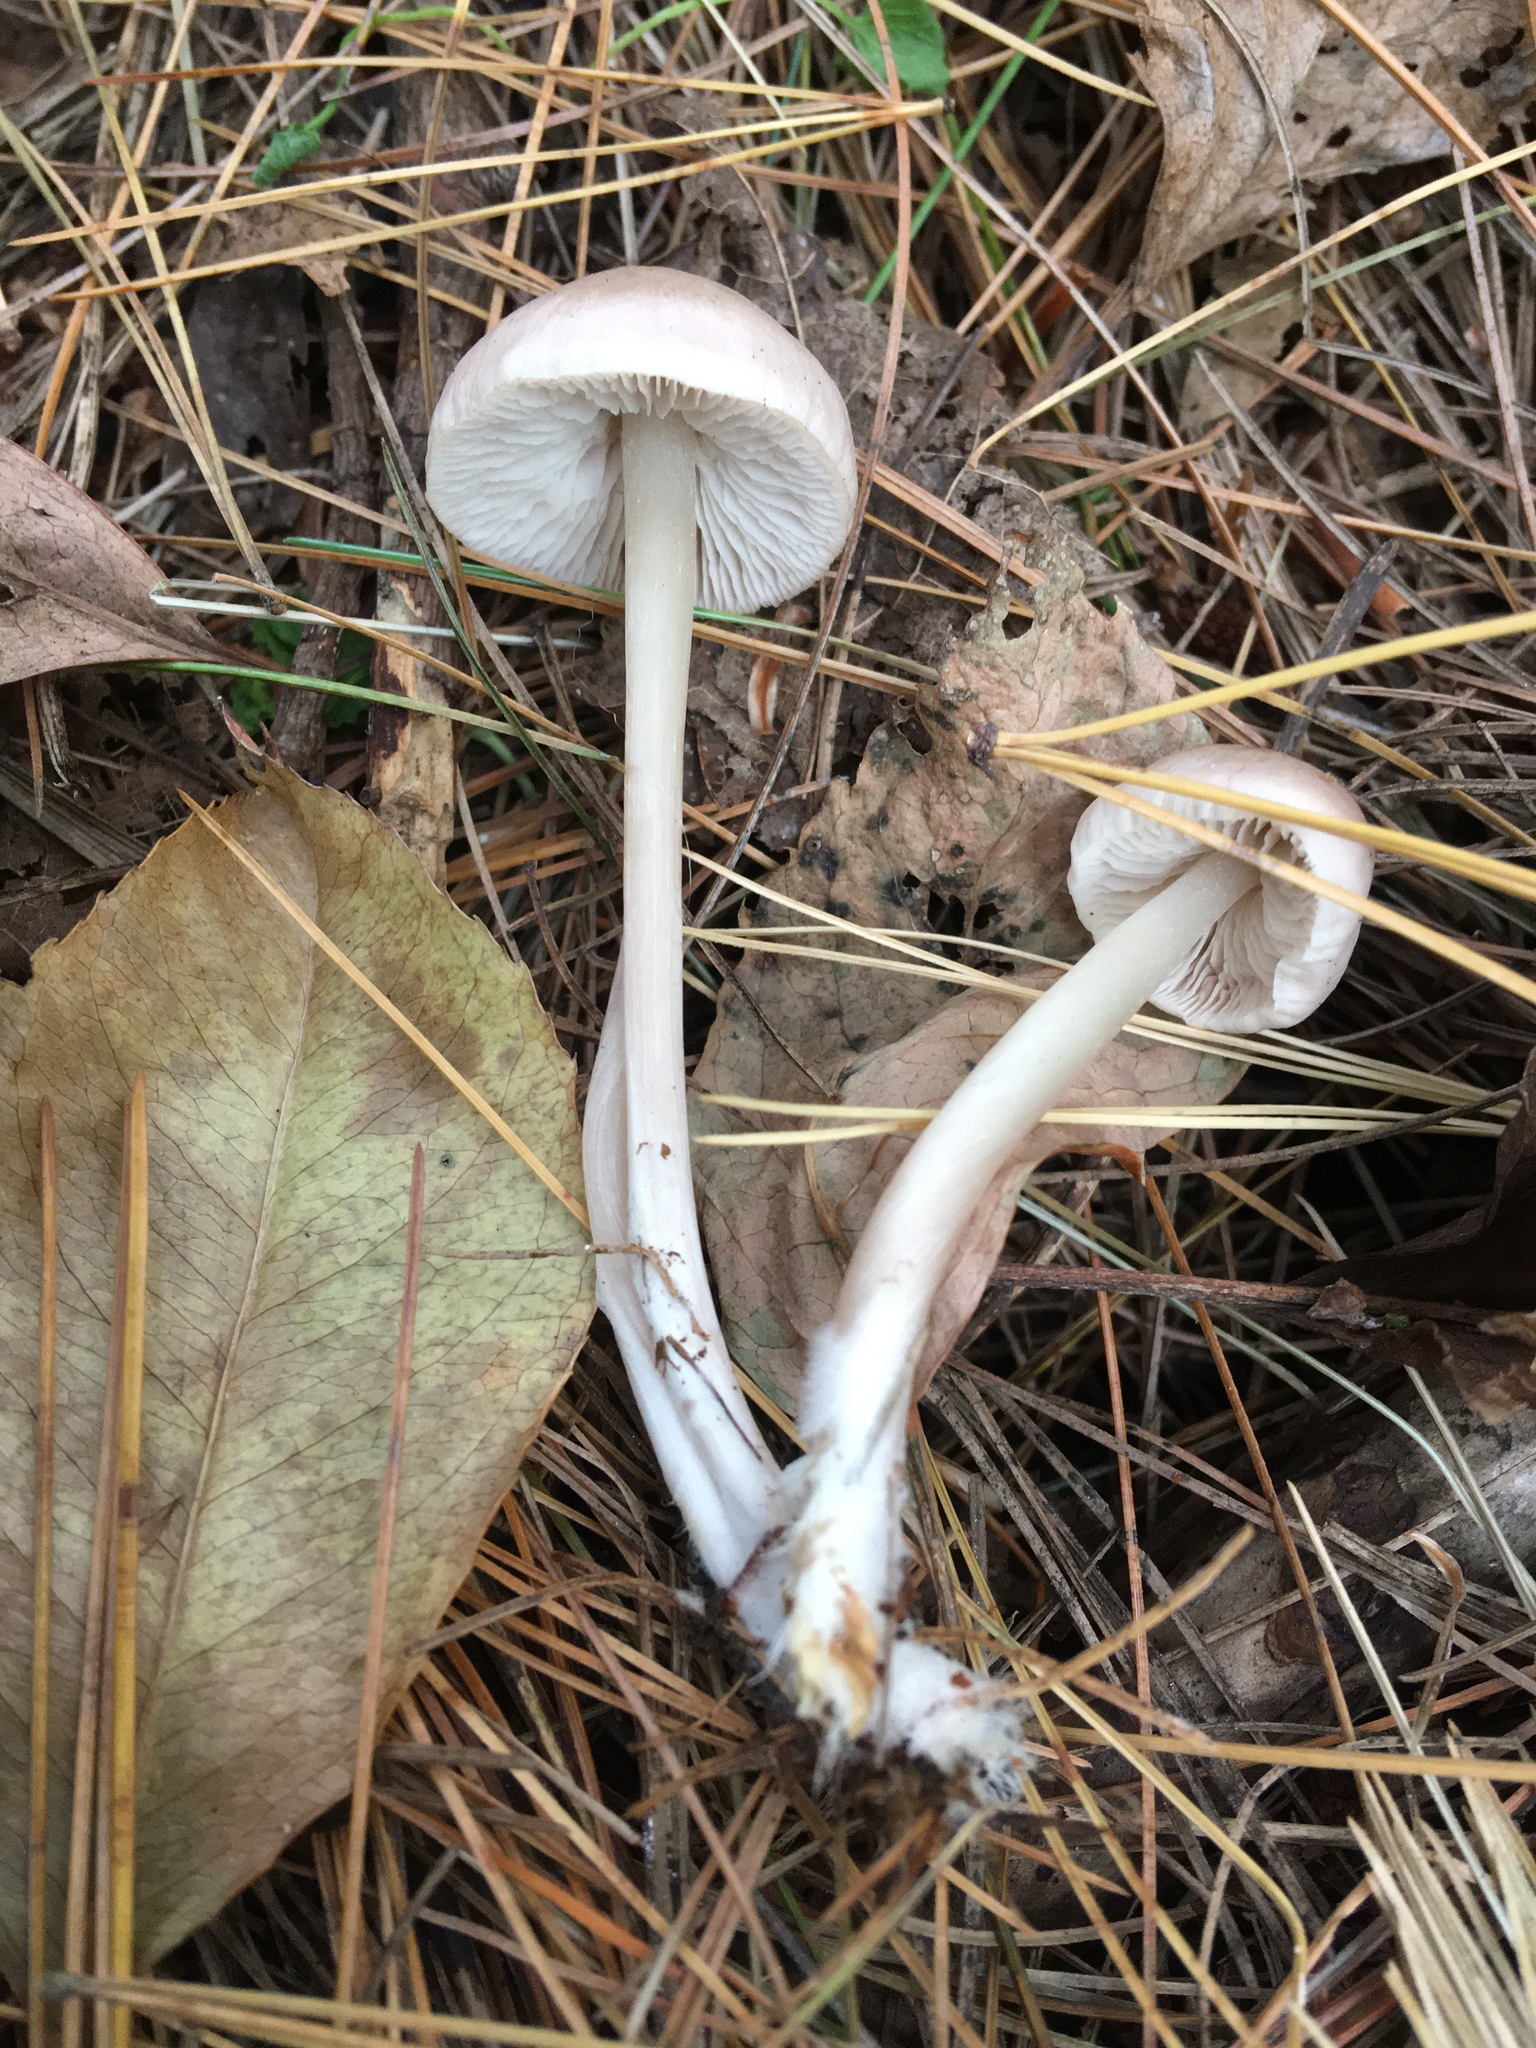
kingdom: Fungi
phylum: Basidiomycota
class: Agaricomycetes
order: Agaricales
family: Mycenaceae
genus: Mycena
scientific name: Mycena pura
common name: Lilac bonnet
